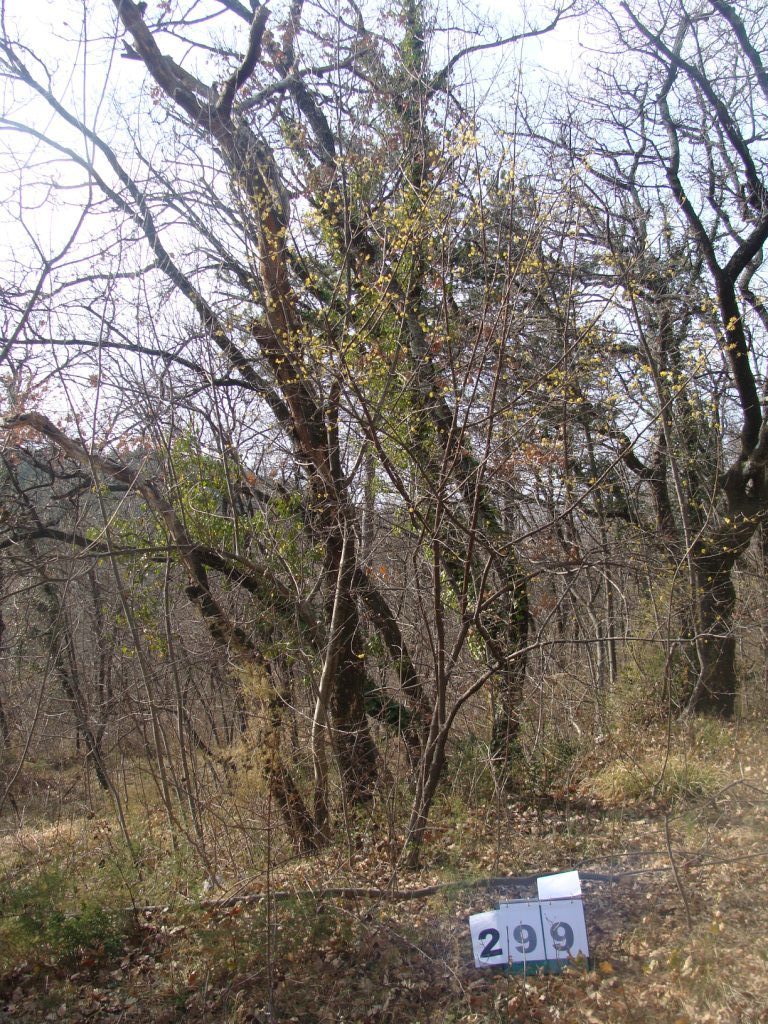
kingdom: Plantae
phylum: Tracheophyta
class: Magnoliopsida
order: Cornales
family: Cornaceae
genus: Cornus
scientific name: Cornus mas
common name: Cornelian-cherry
